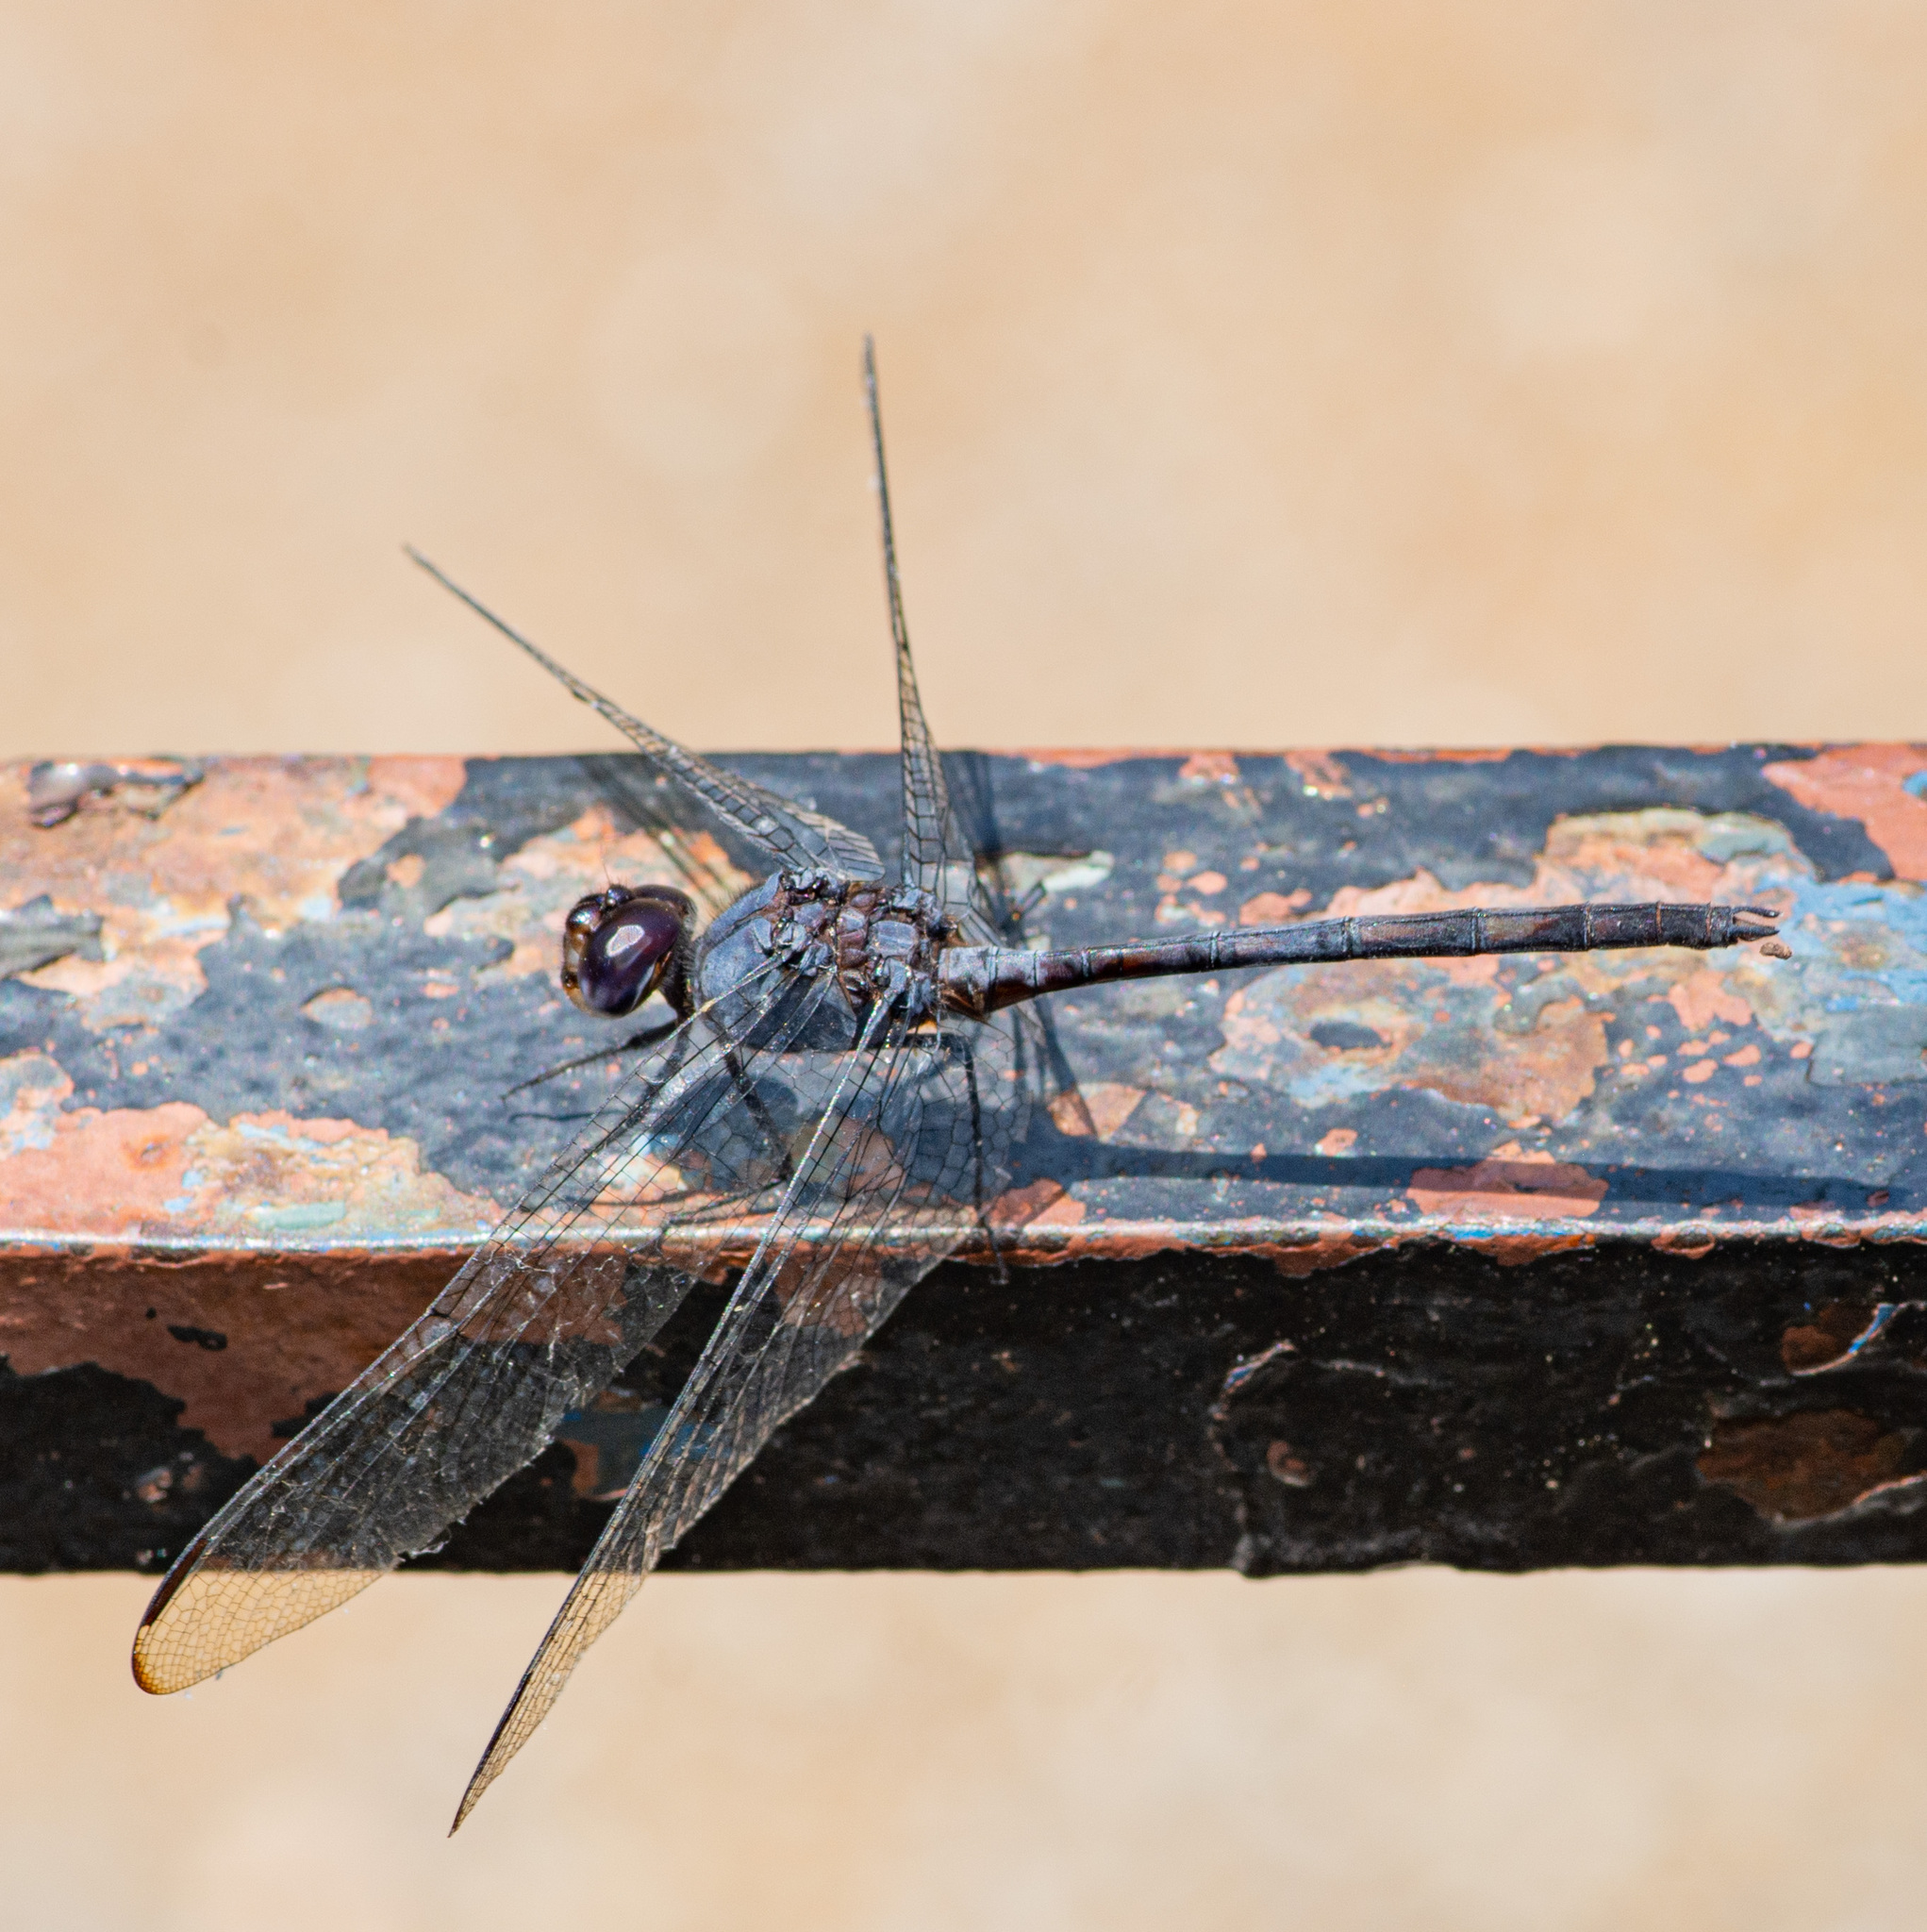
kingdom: Animalia
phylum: Arthropoda
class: Insecta
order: Odonata
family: Libellulidae
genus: Dythemis
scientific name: Dythemis nigrescens
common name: Black setwing
